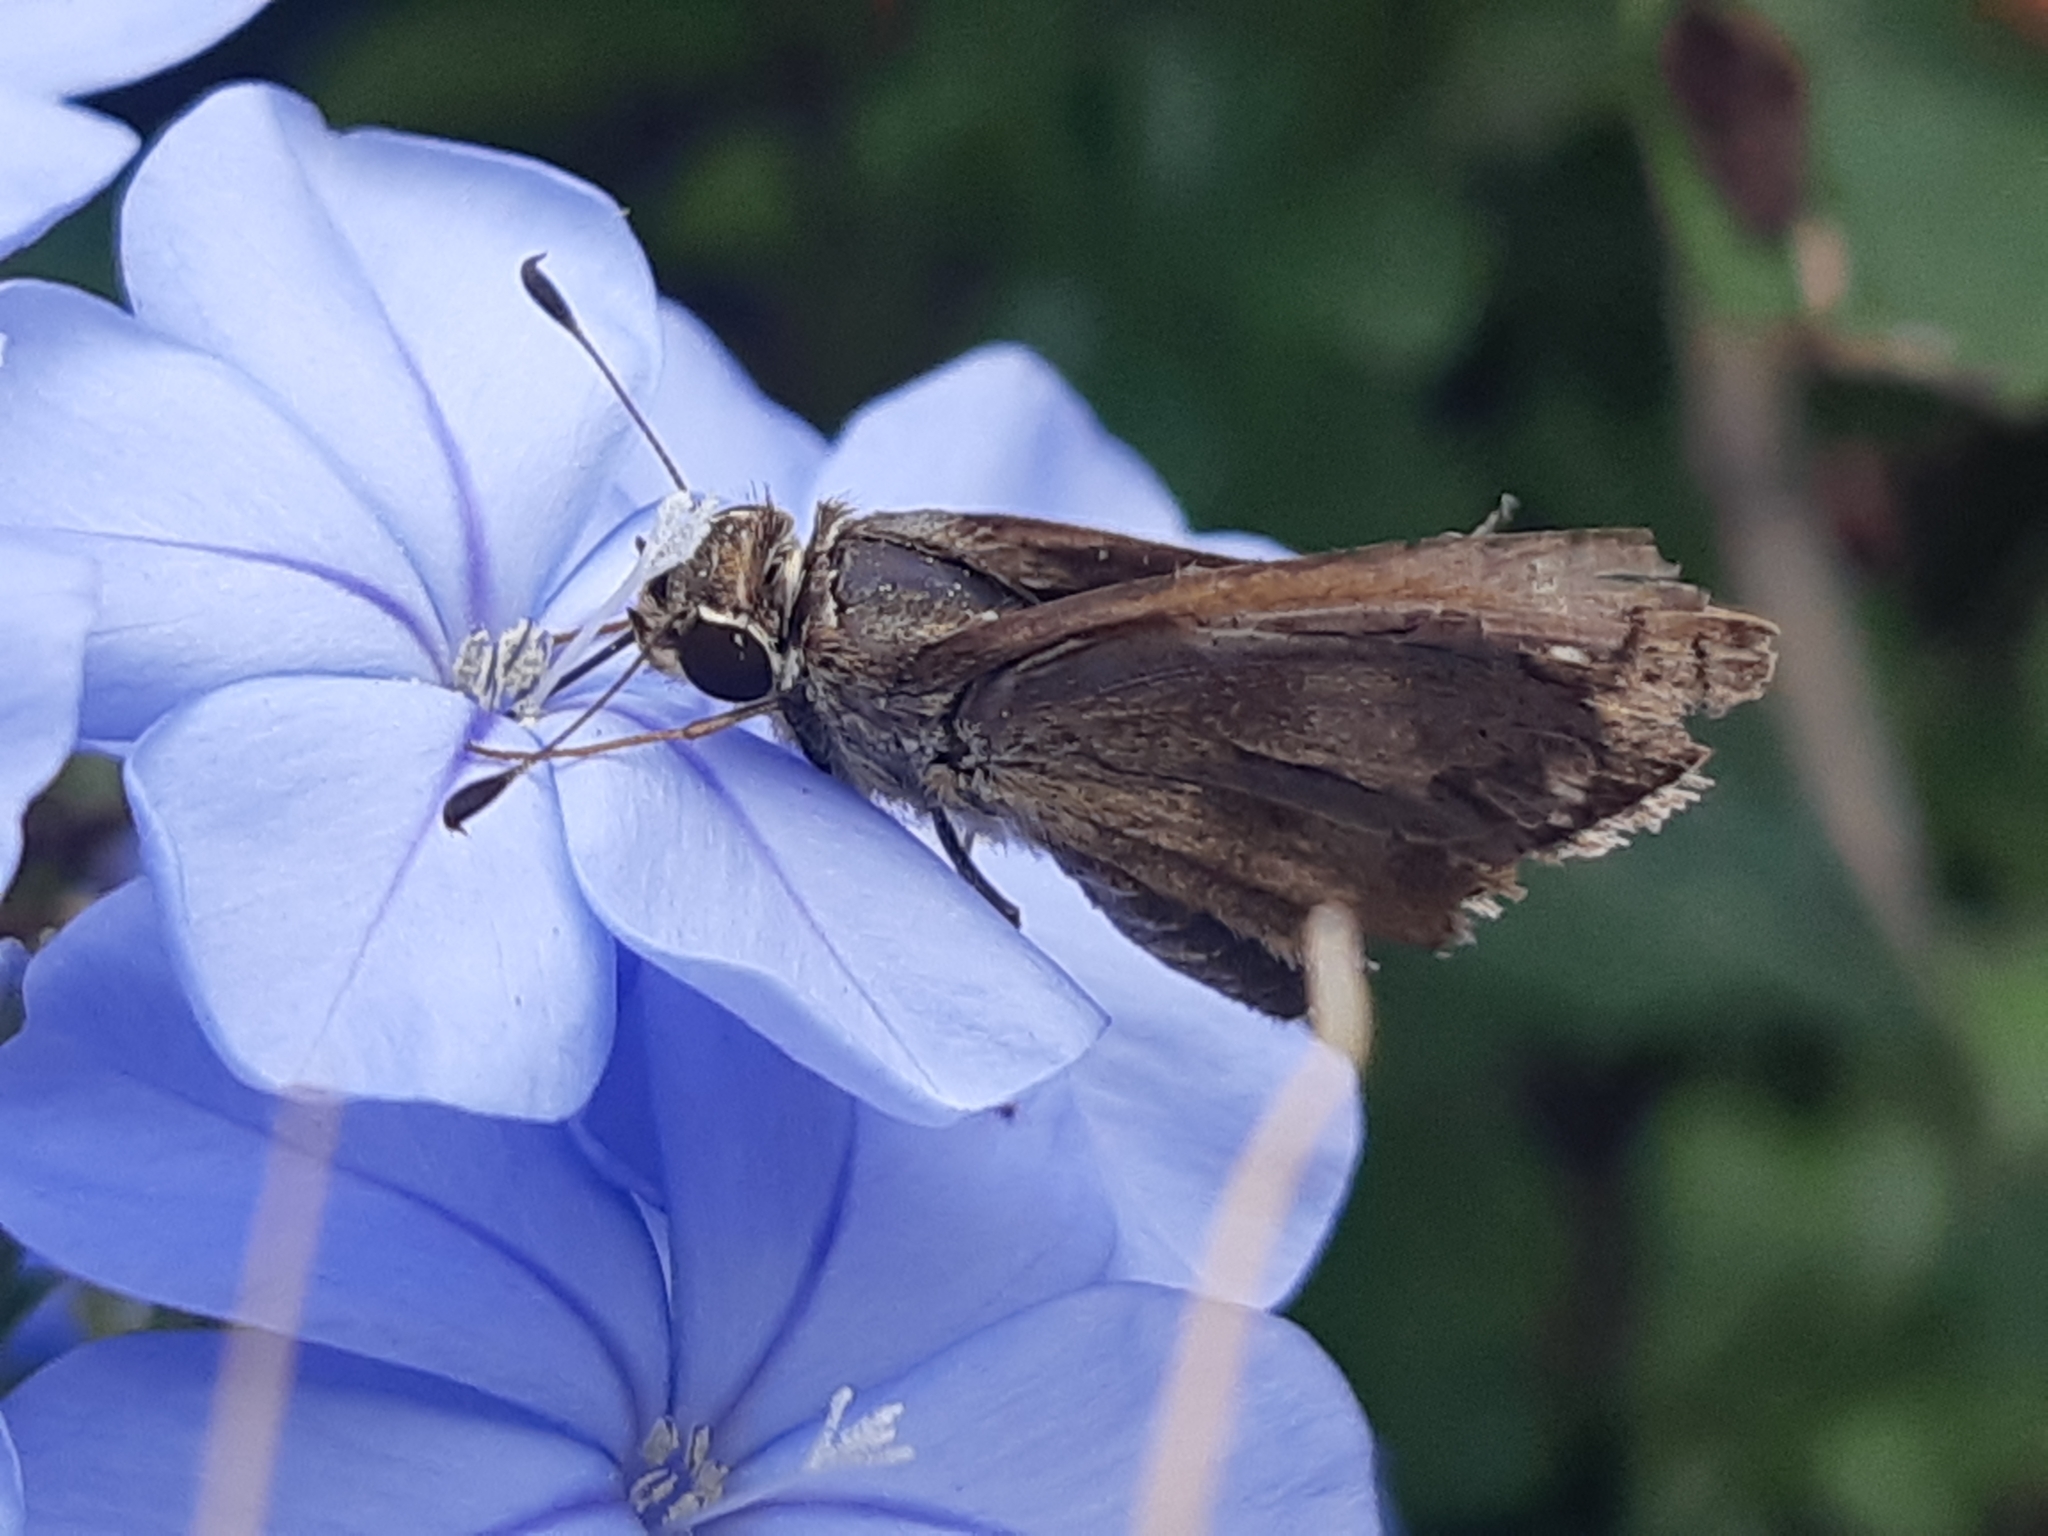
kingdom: Animalia
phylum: Arthropoda
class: Insecta
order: Lepidoptera
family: Hesperiidae
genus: Polites
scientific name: Polites vibex
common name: Whirlabout
